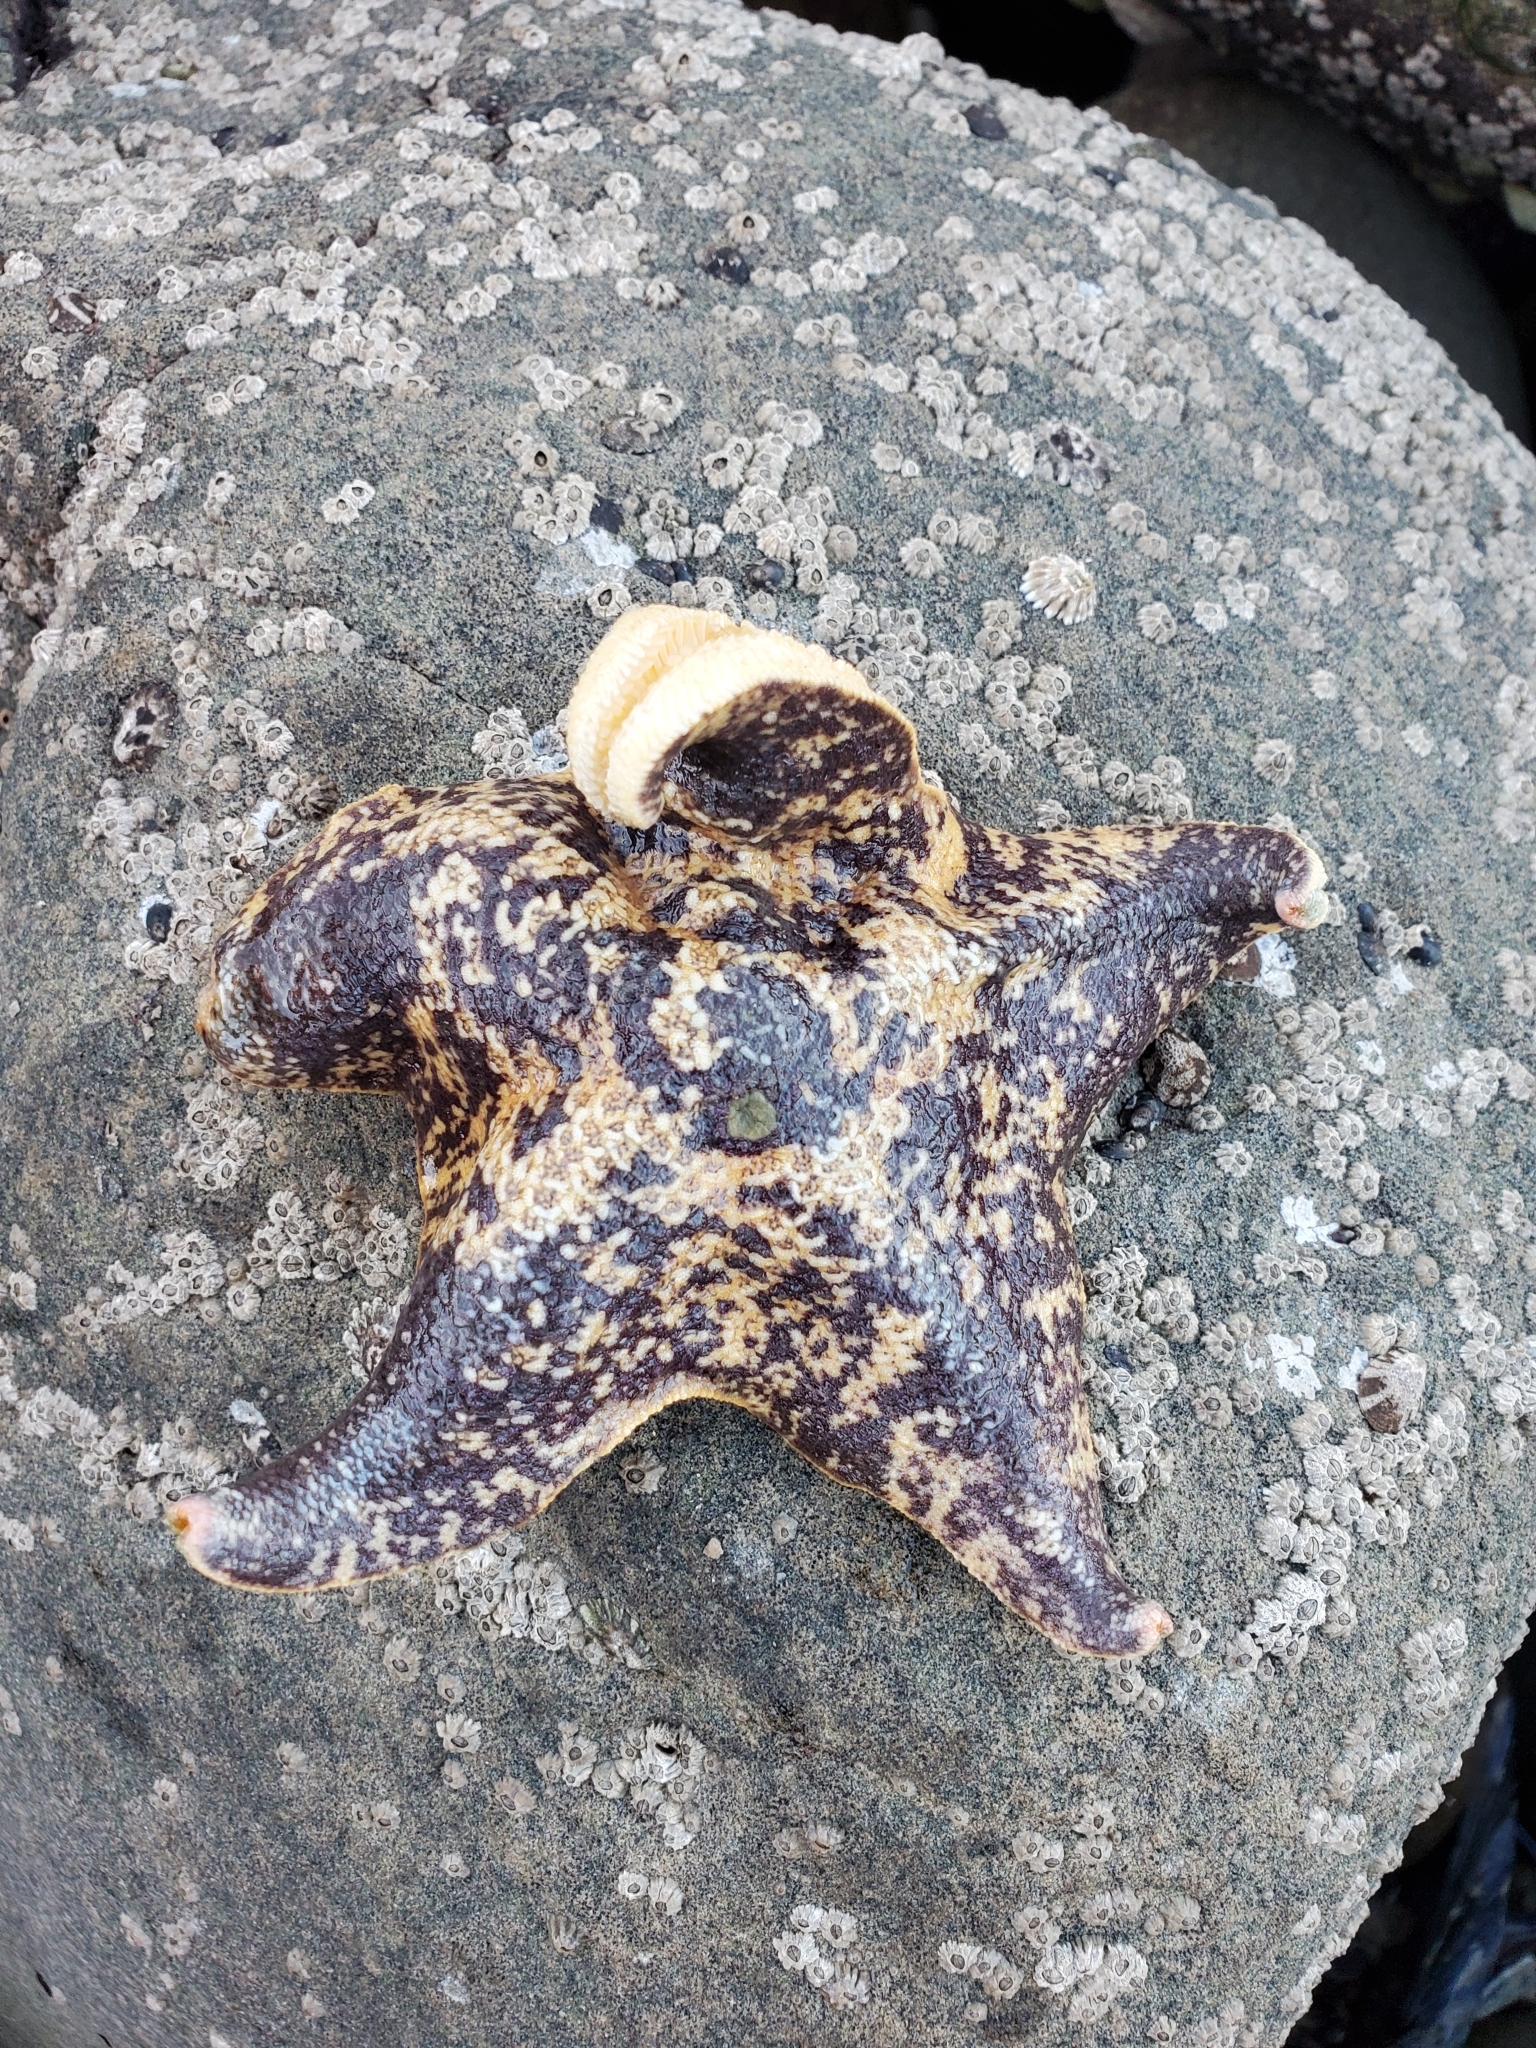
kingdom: Animalia
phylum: Echinodermata
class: Asteroidea
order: Valvatida
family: Asterinidae
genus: Patiria
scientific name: Patiria miniata
